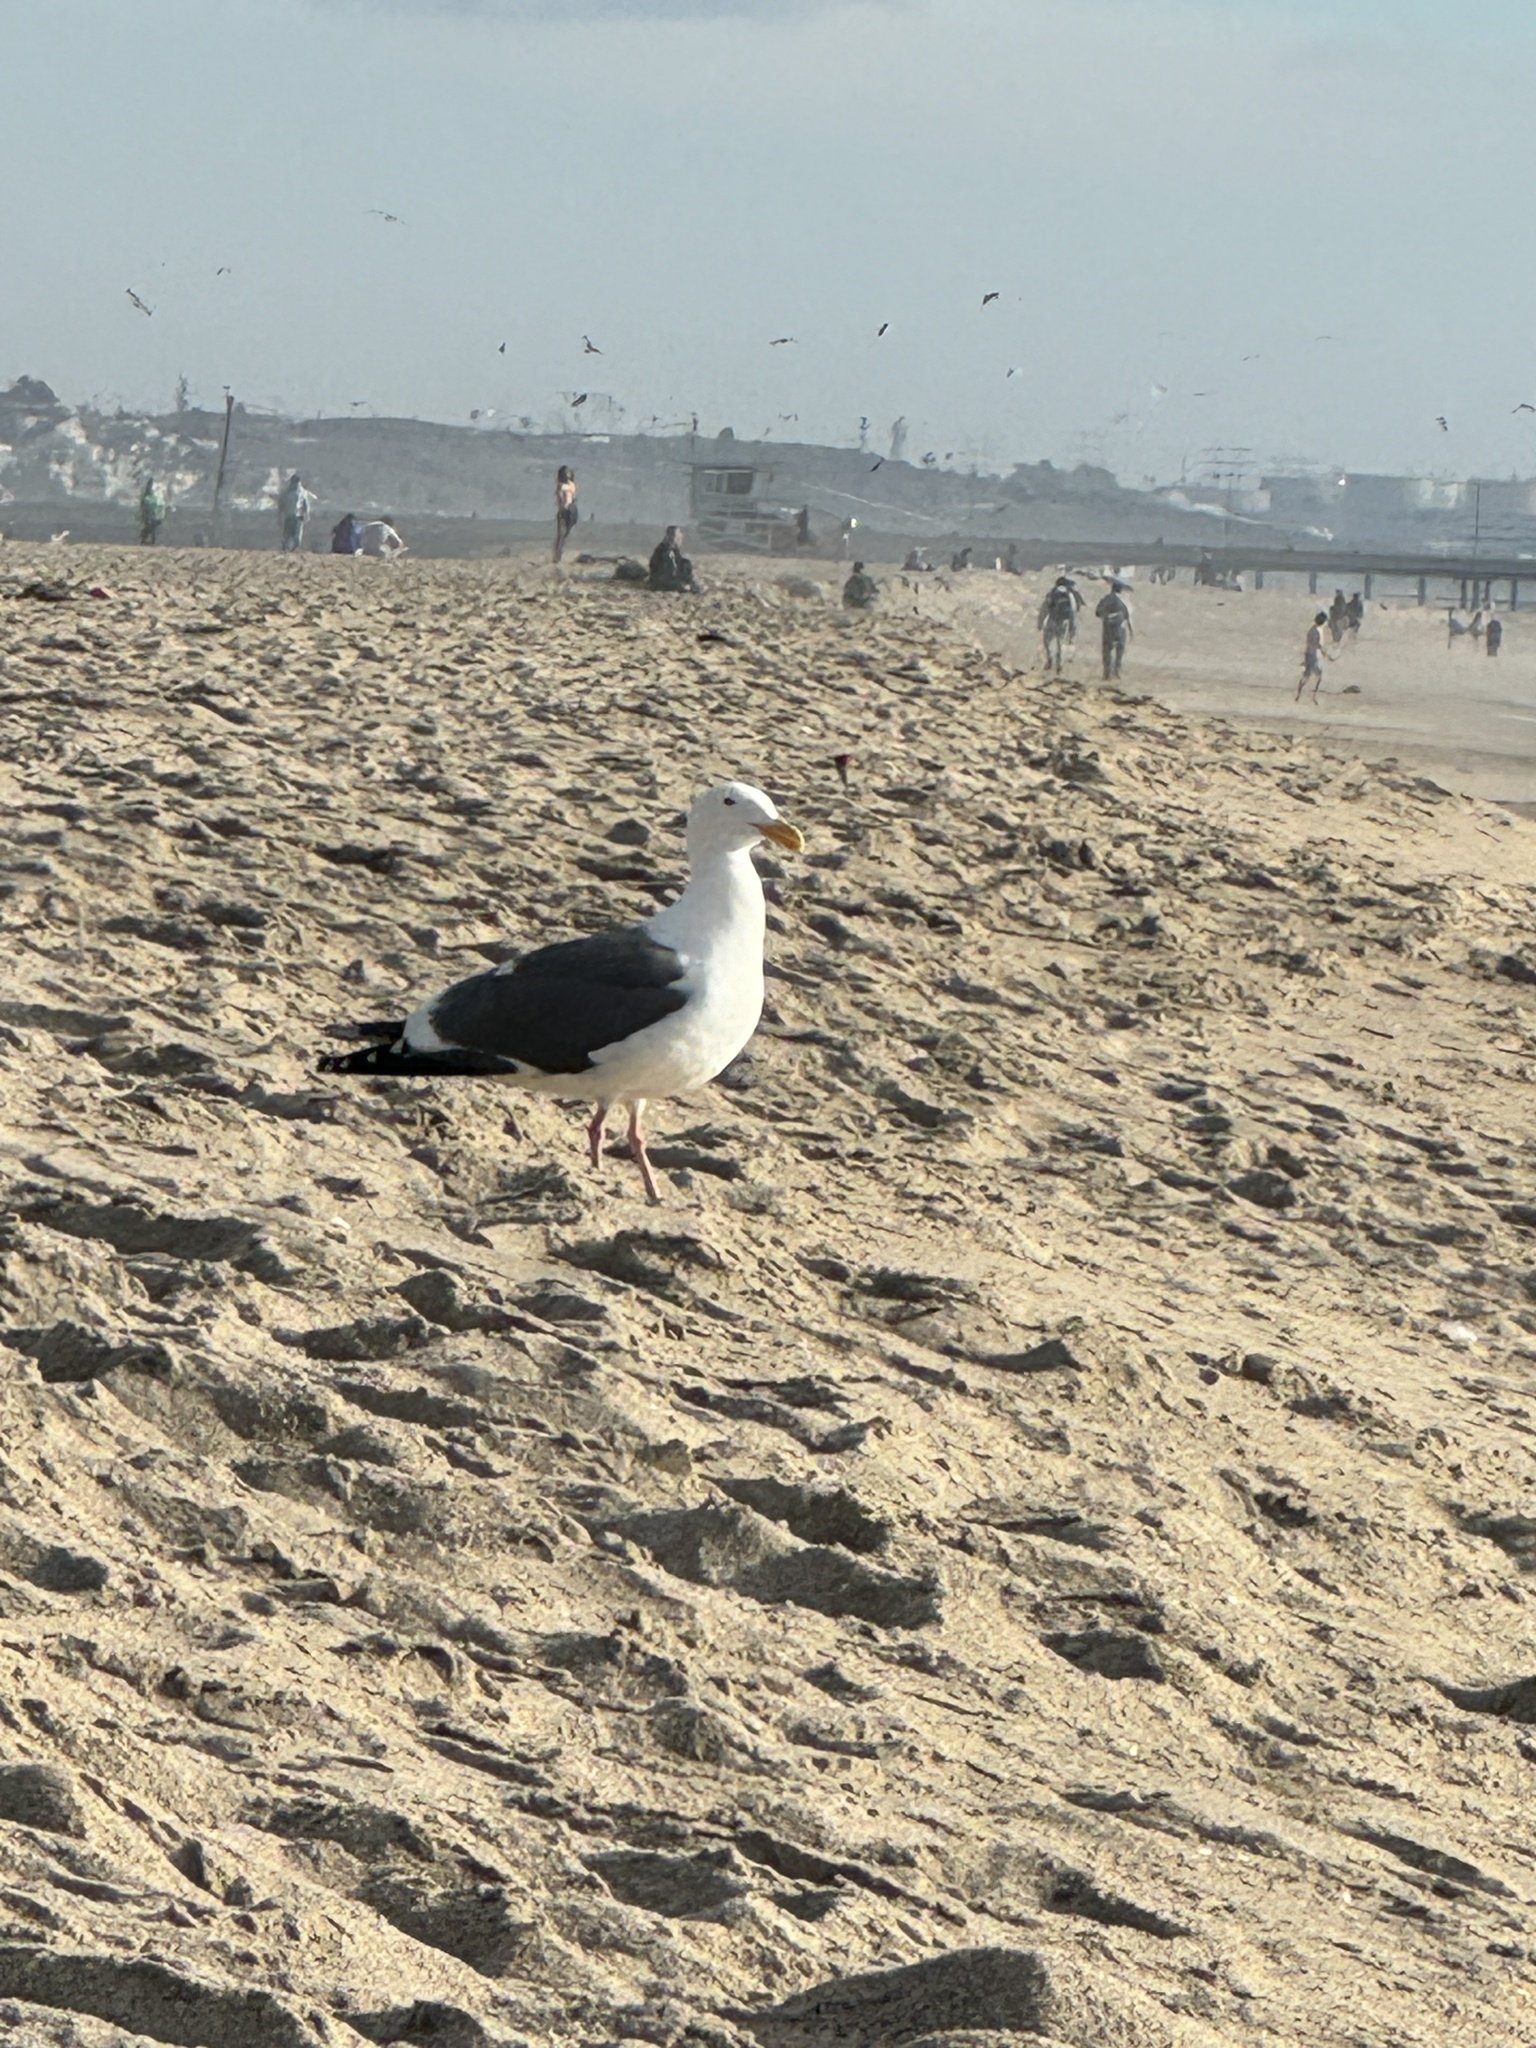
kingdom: Animalia
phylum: Chordata
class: Aves
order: Charadriiformes
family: Laridae
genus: Larus
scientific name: Larus occidentalis
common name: Western gull
